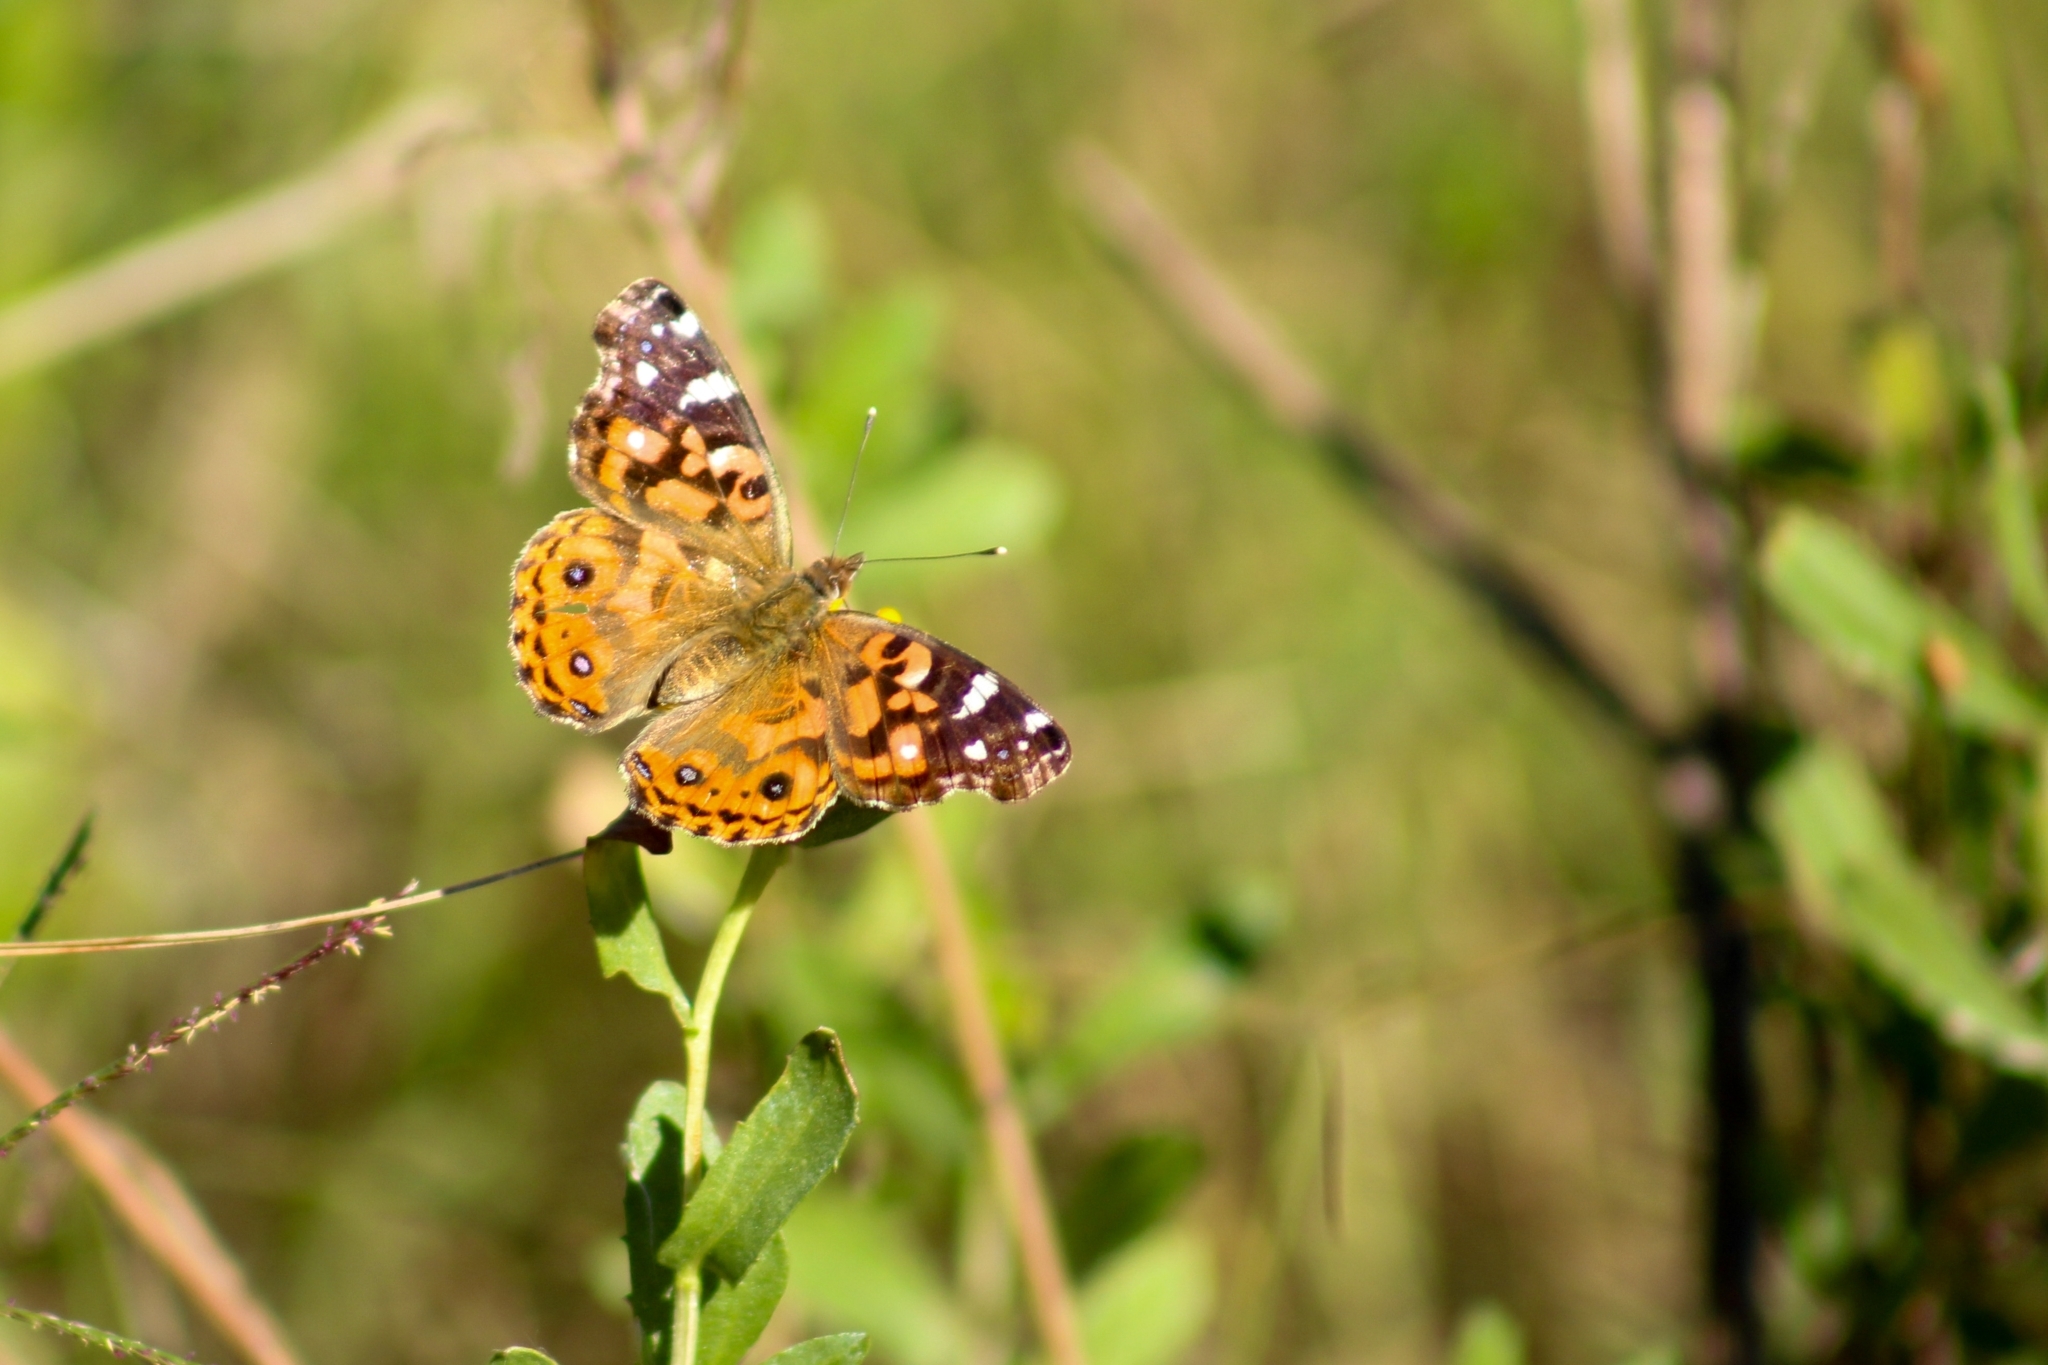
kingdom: Animalia
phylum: Arthropoda
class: Insecta
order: Lepidoptera
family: Nymphalidae
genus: Vanessa
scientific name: Vanessa braziliensis
